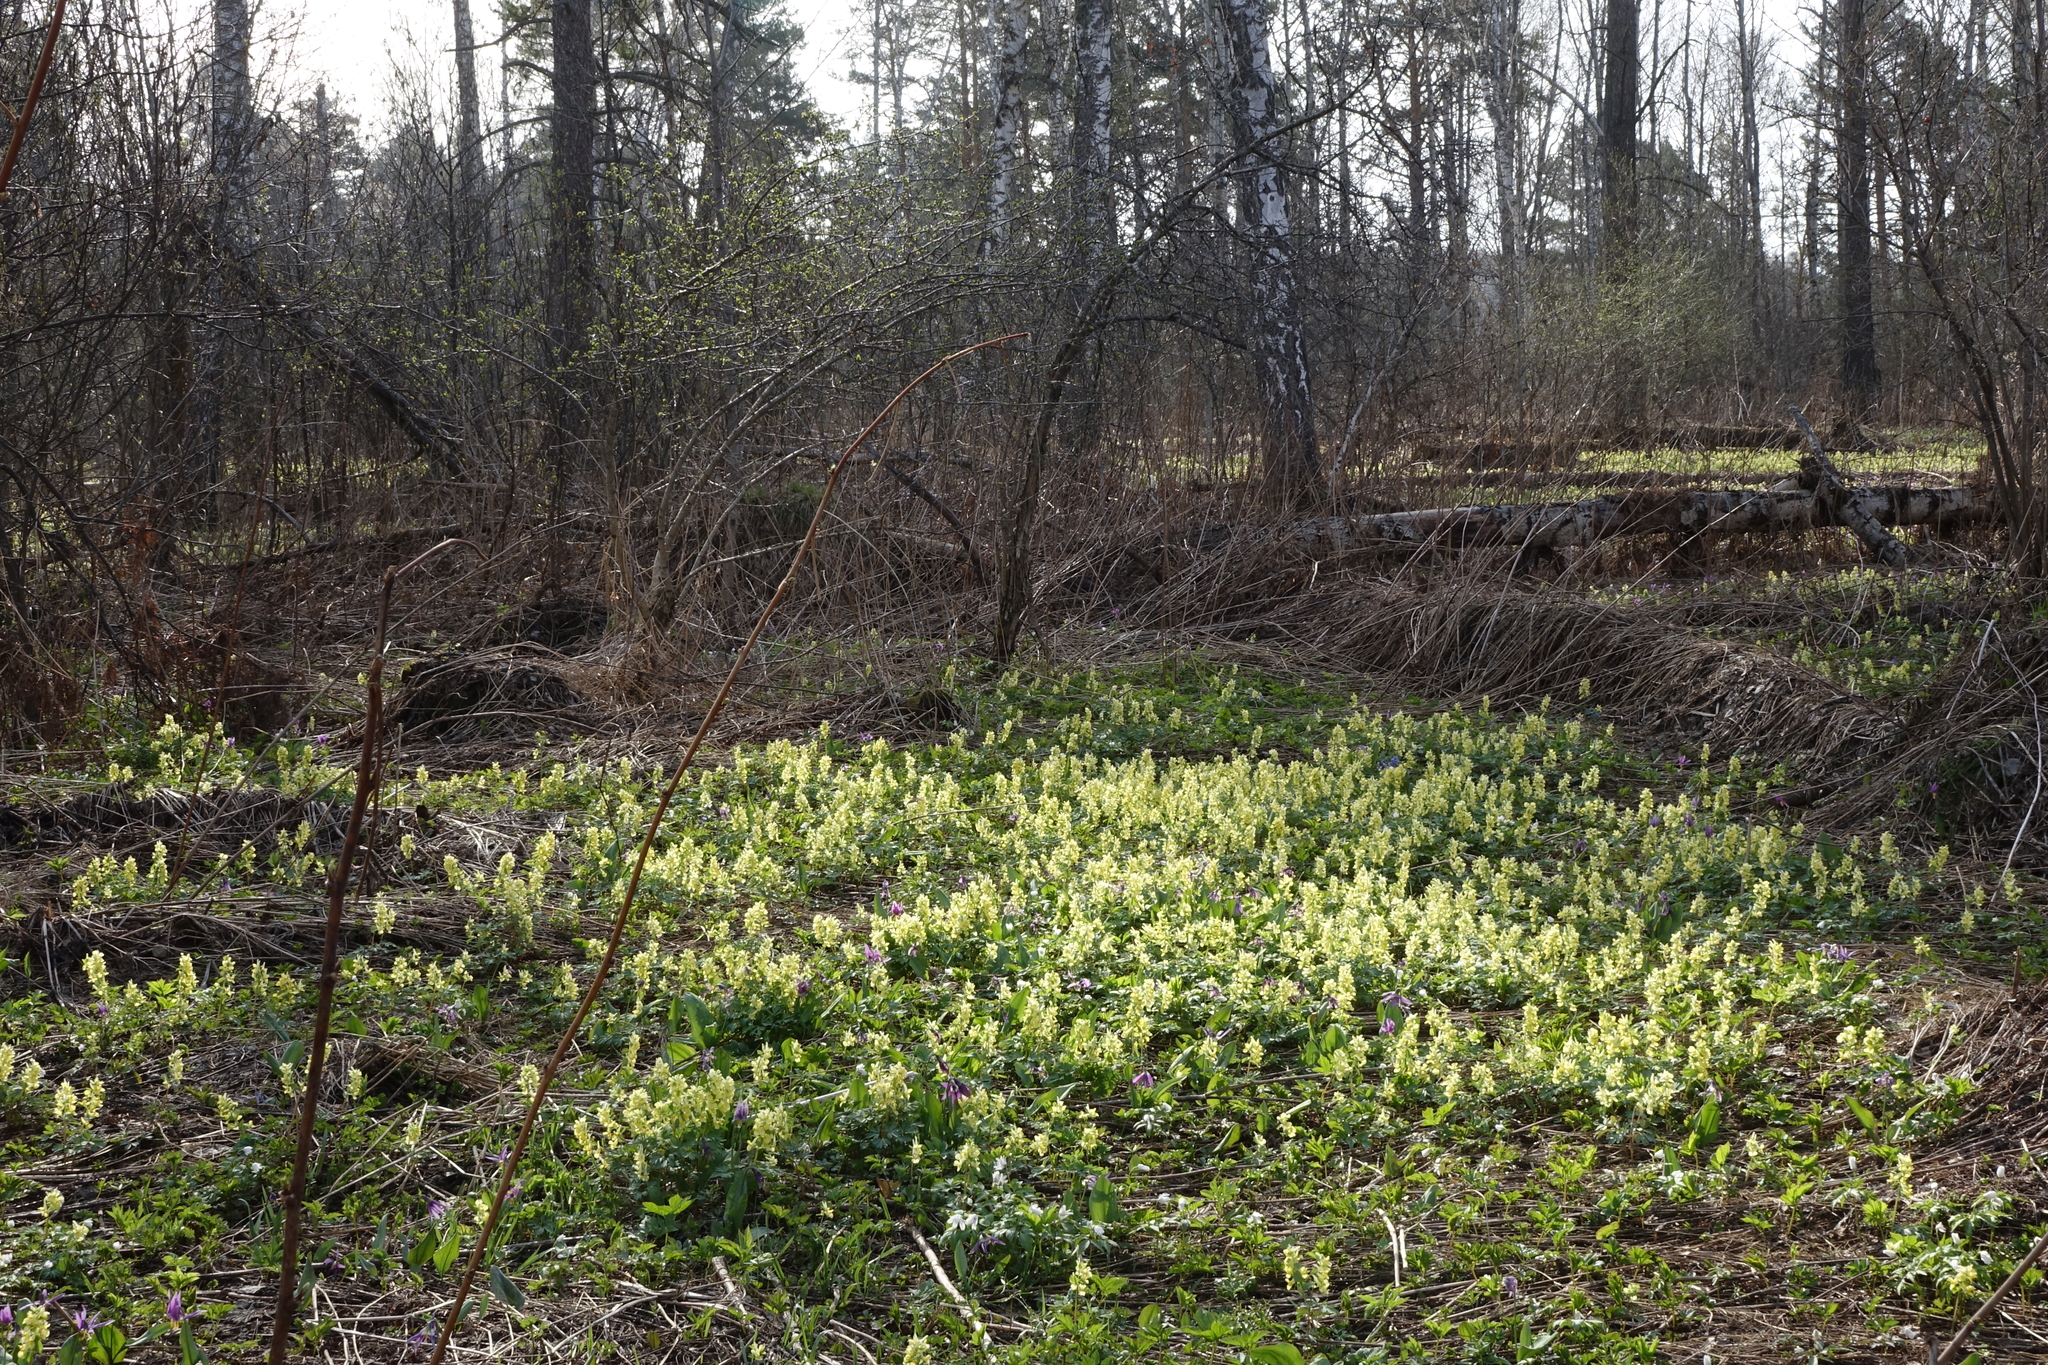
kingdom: Plantae
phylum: Tracheophyta
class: Magnoliopsida
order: Ranunculales
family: Papaveraceae
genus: Corydalis
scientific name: Corydalis bracteata
